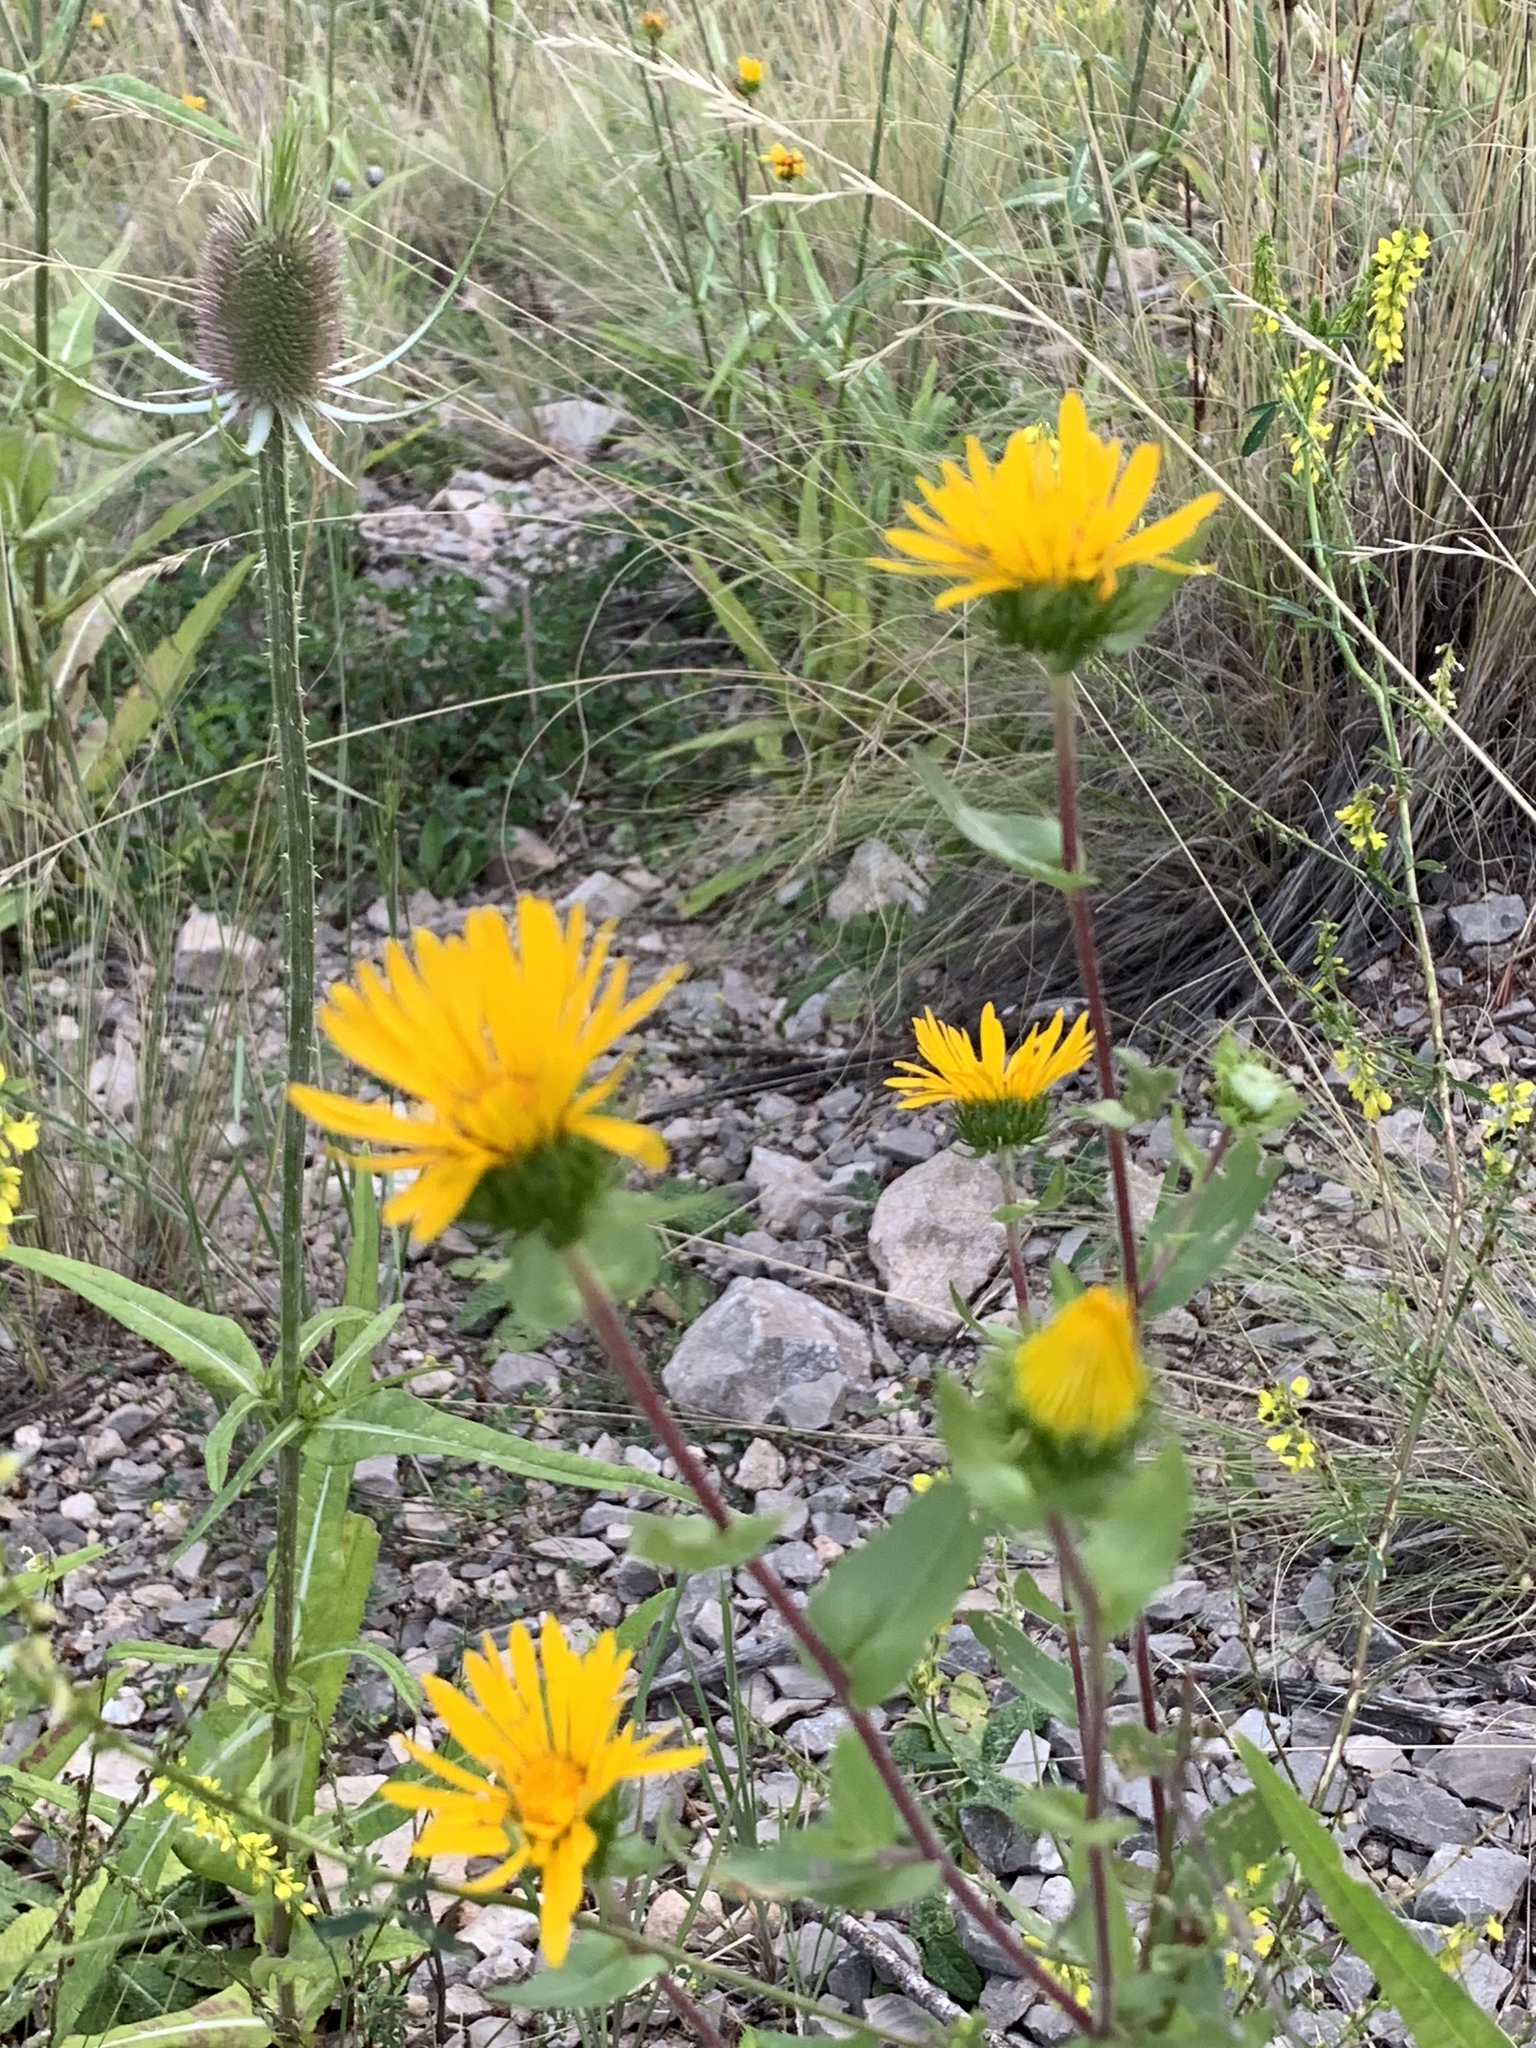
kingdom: Plantae
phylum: Tracheophyta
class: Magnoliopsida
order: Asterales
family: Asteraceae
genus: Grindelia
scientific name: Grindelia scabra
